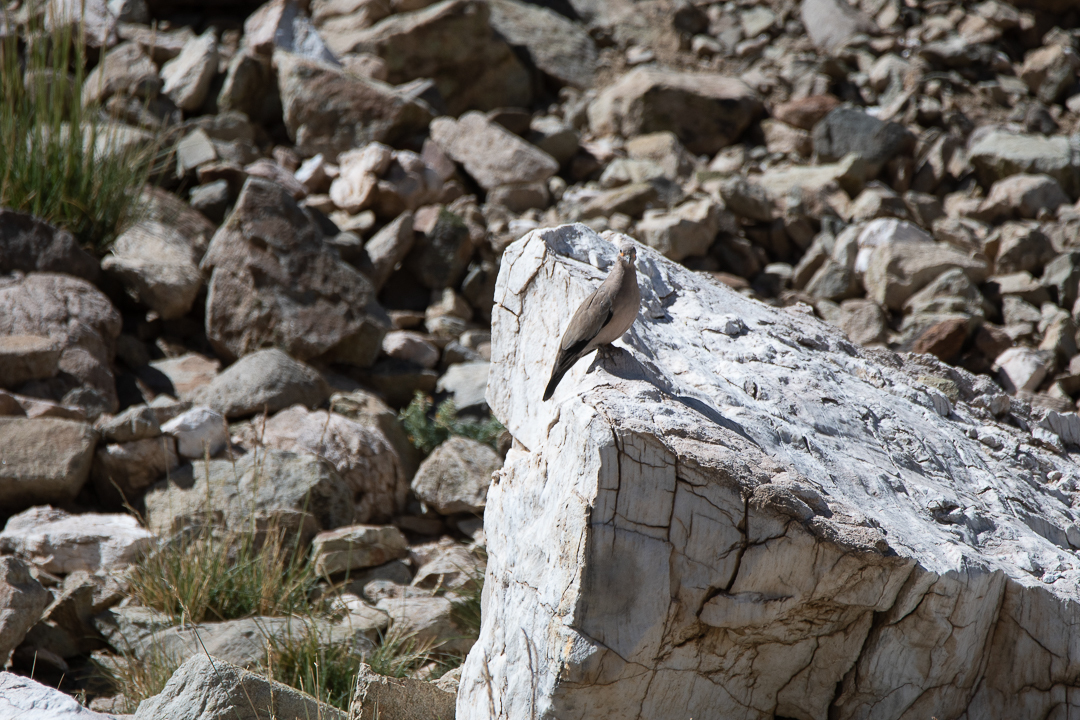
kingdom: Animalia
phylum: Chordata
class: Aves
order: Columbiformes
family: Columbidae
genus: Metriopelia
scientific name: Metriopelia melanoptera
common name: Black-winged ground dove
